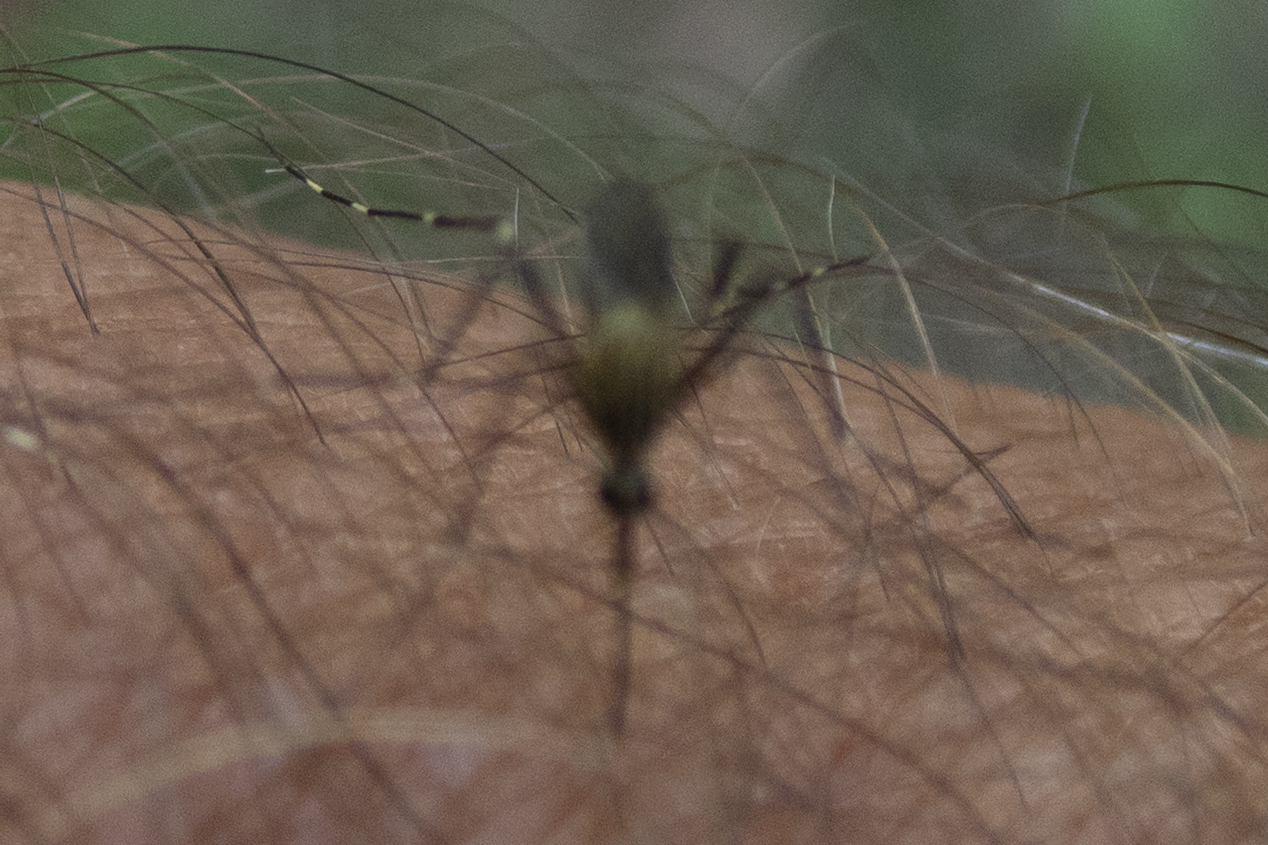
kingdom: Animalia
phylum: Arthropoda
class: Insecta
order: Diptera
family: Culicidae
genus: Aedes
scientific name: Aedes japonicus
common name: Asian bush mosquito
